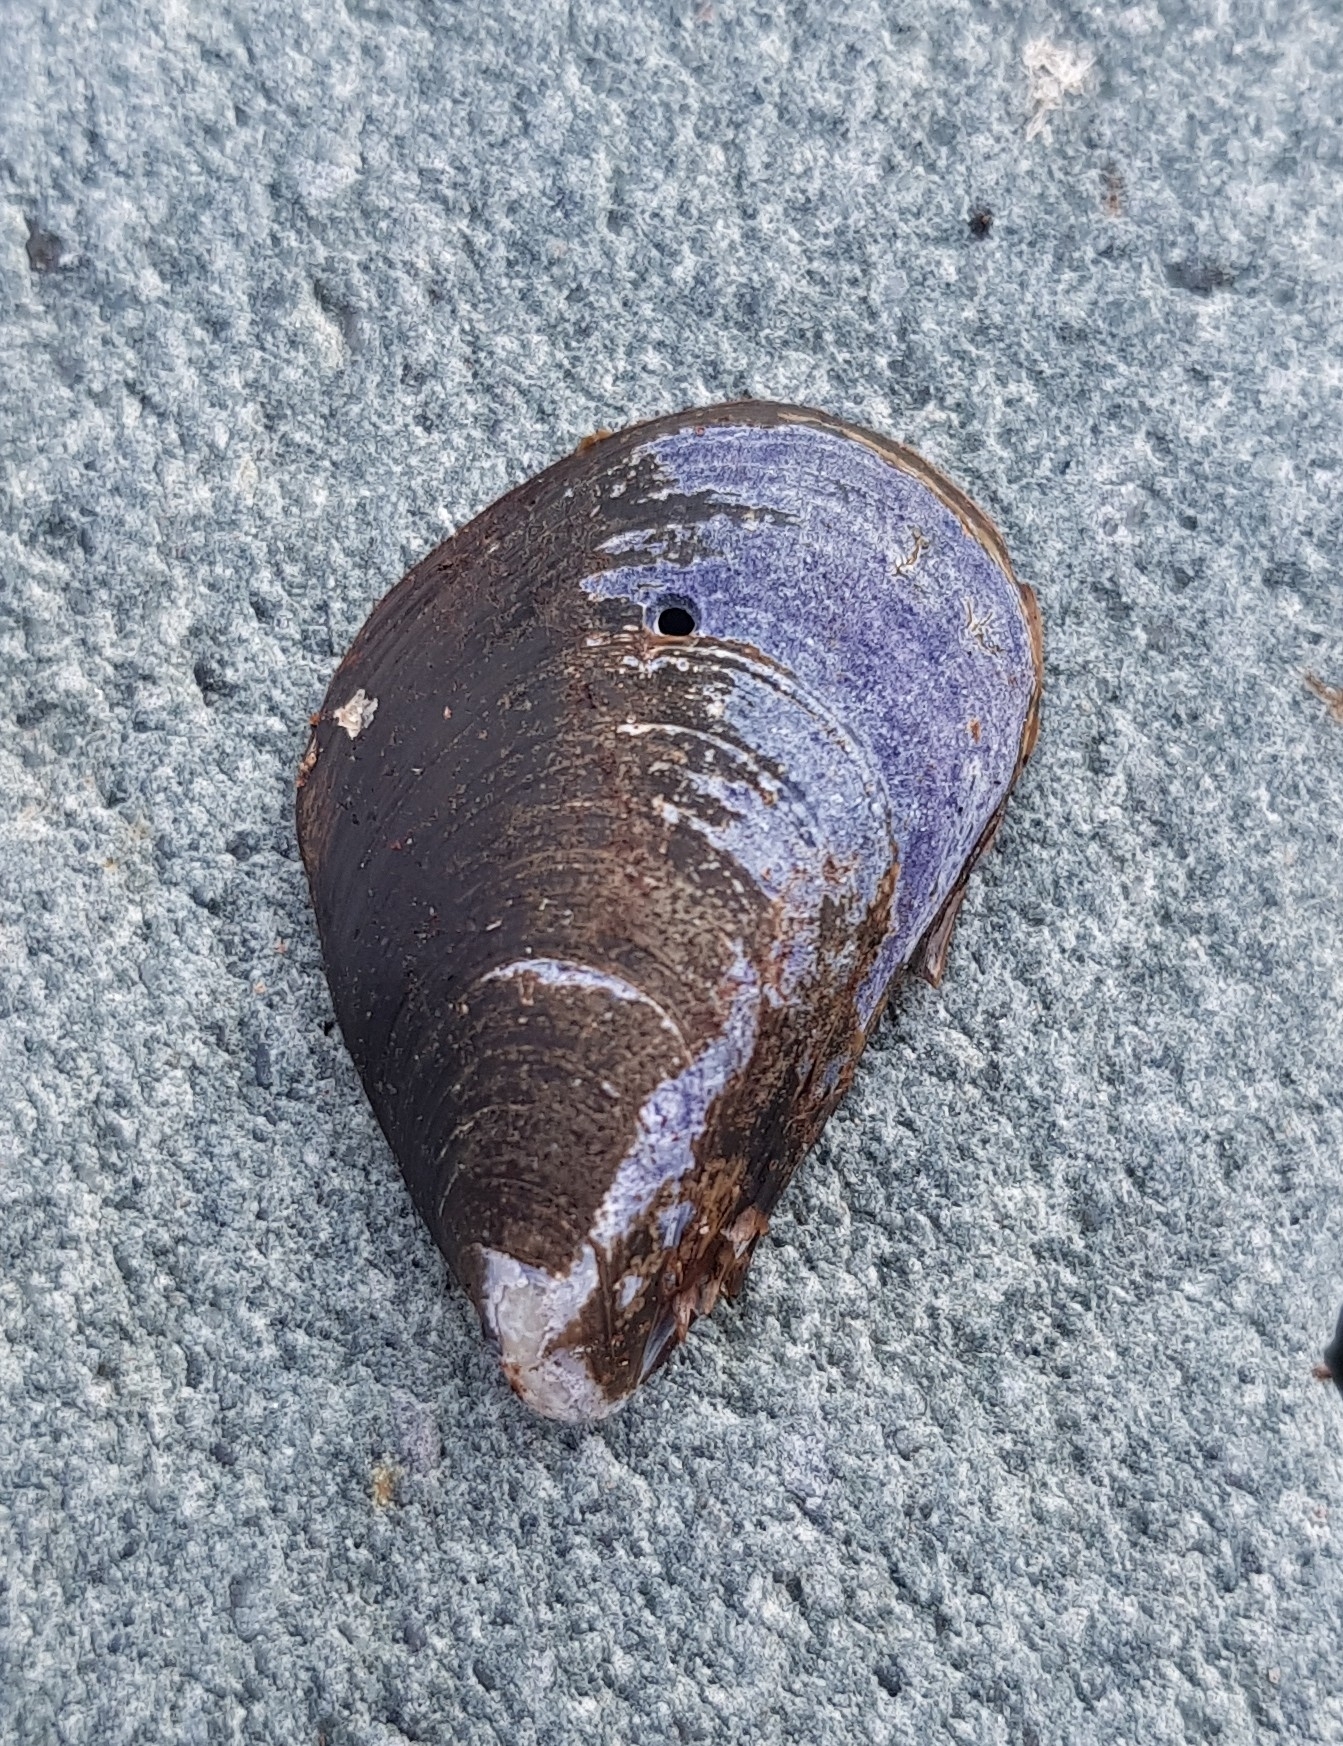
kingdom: Animalia
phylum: Mollusca
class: Bivalvia
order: Mytilida
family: Mytilidae
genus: Mytilus
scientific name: Mytilus edulis
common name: Blue mussel
